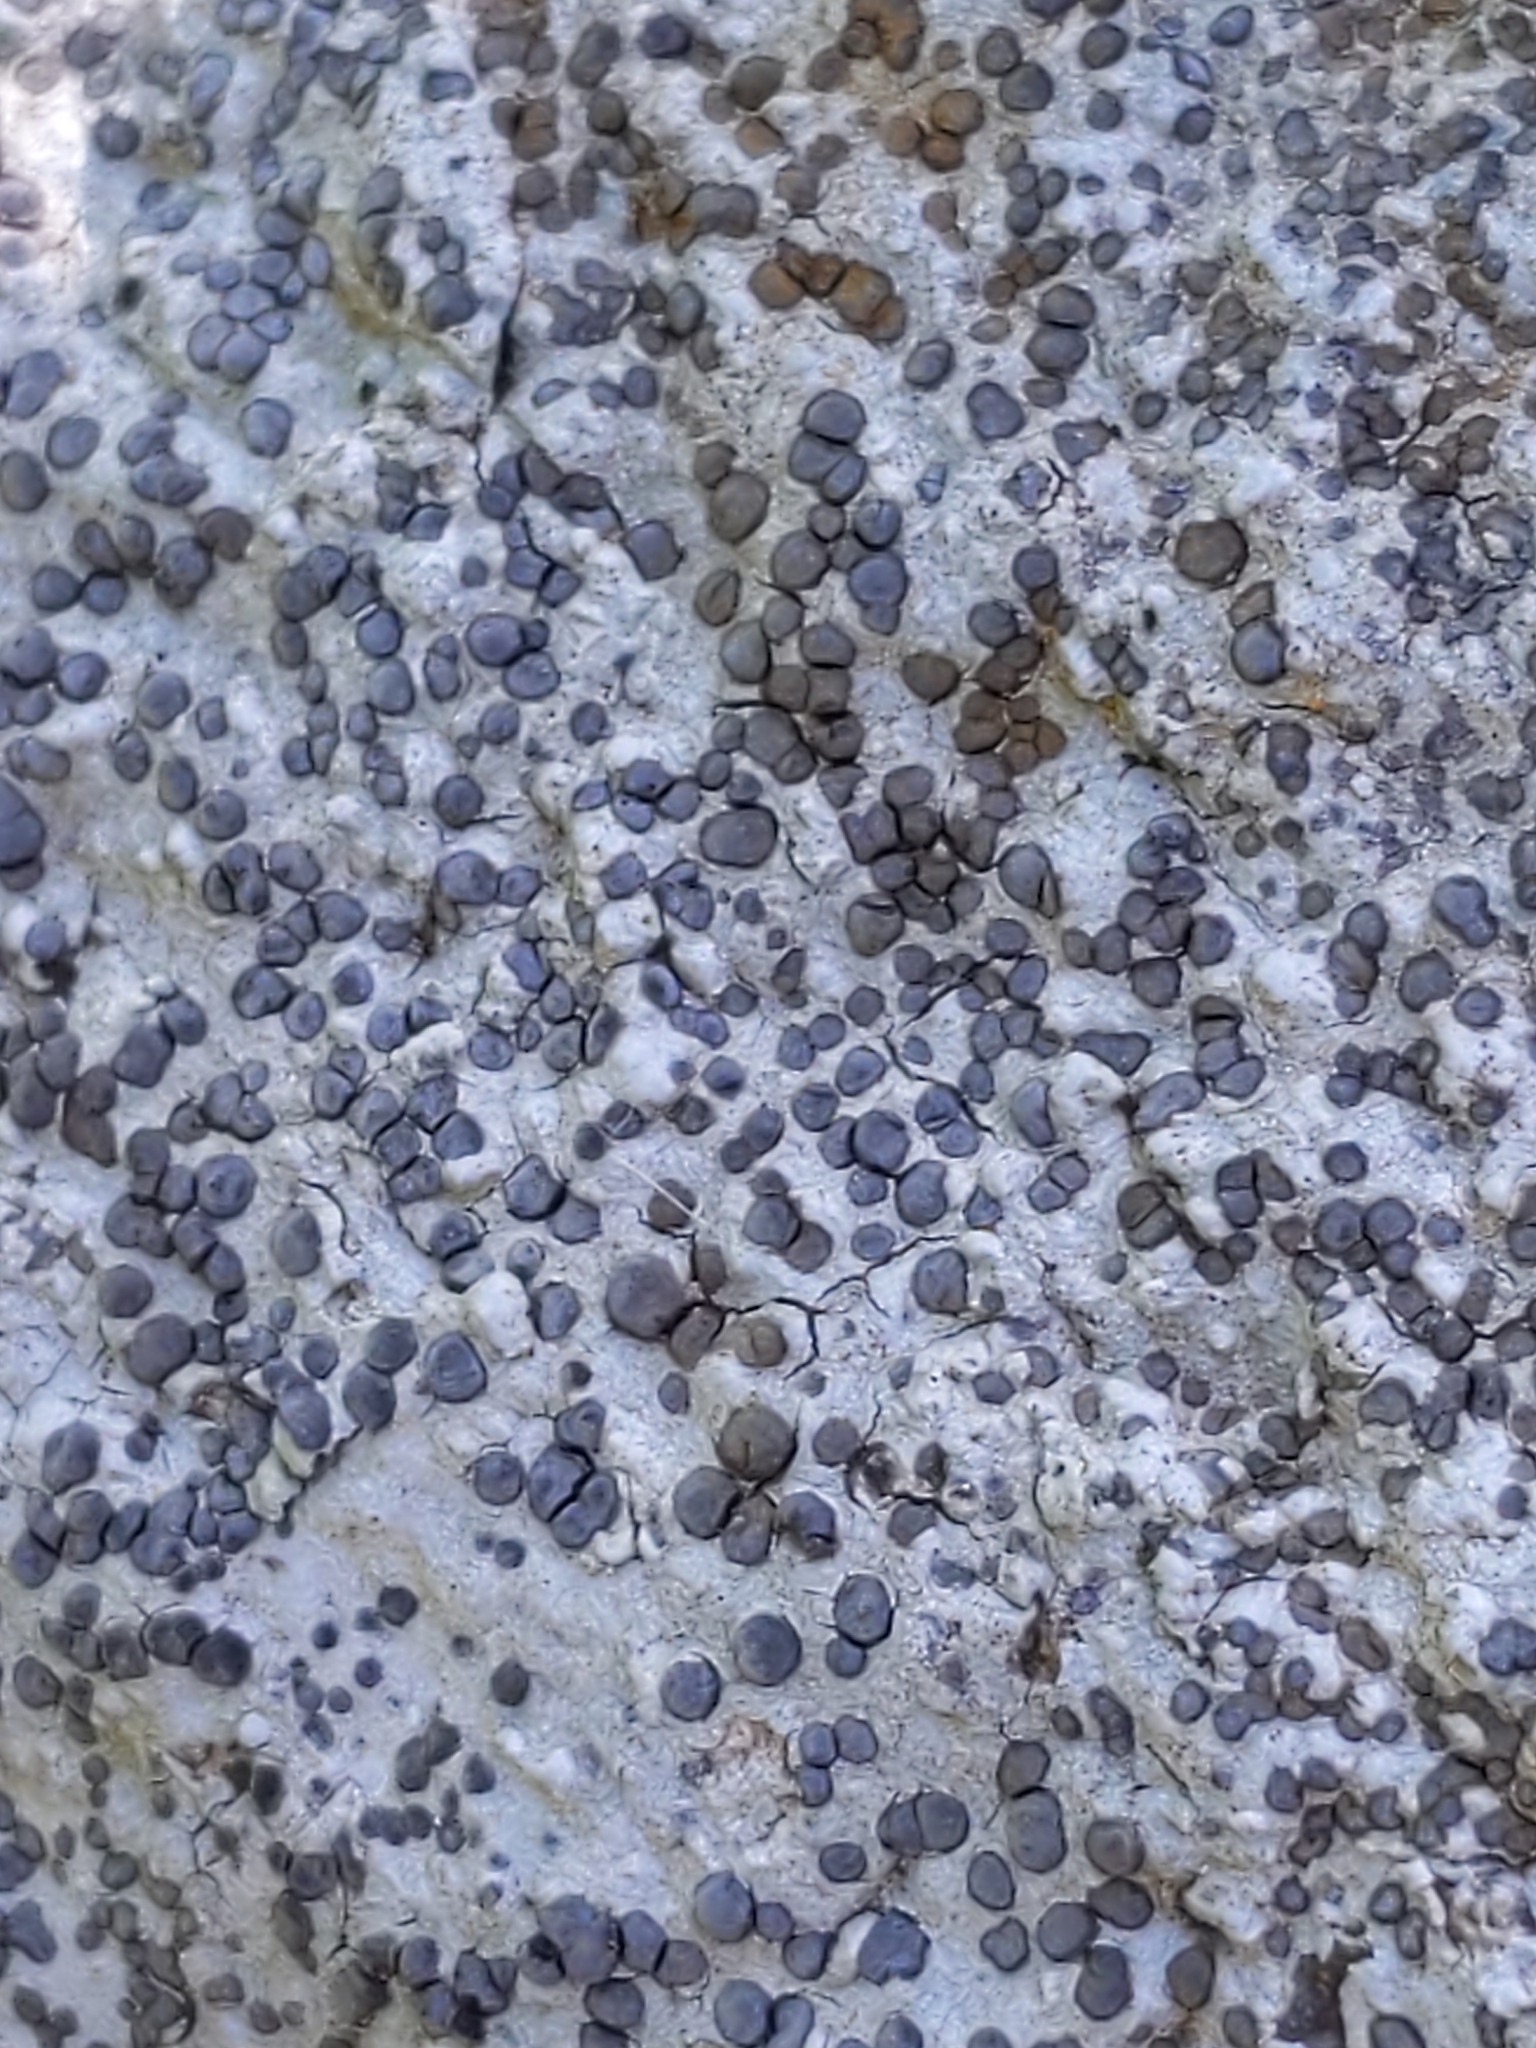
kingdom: Fungi
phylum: Ascomycota
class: Lecanoromycetes
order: Lecideales
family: Lecideaceae
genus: Porpidia
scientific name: Porpidia albocaerulescens
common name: Smokey-eyed boulder lichen
